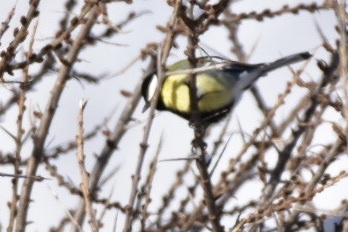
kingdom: Animalia
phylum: Chordata
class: Aves
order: Passeriformes
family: Paridae
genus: Parus
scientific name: Parus major
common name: Great tit
